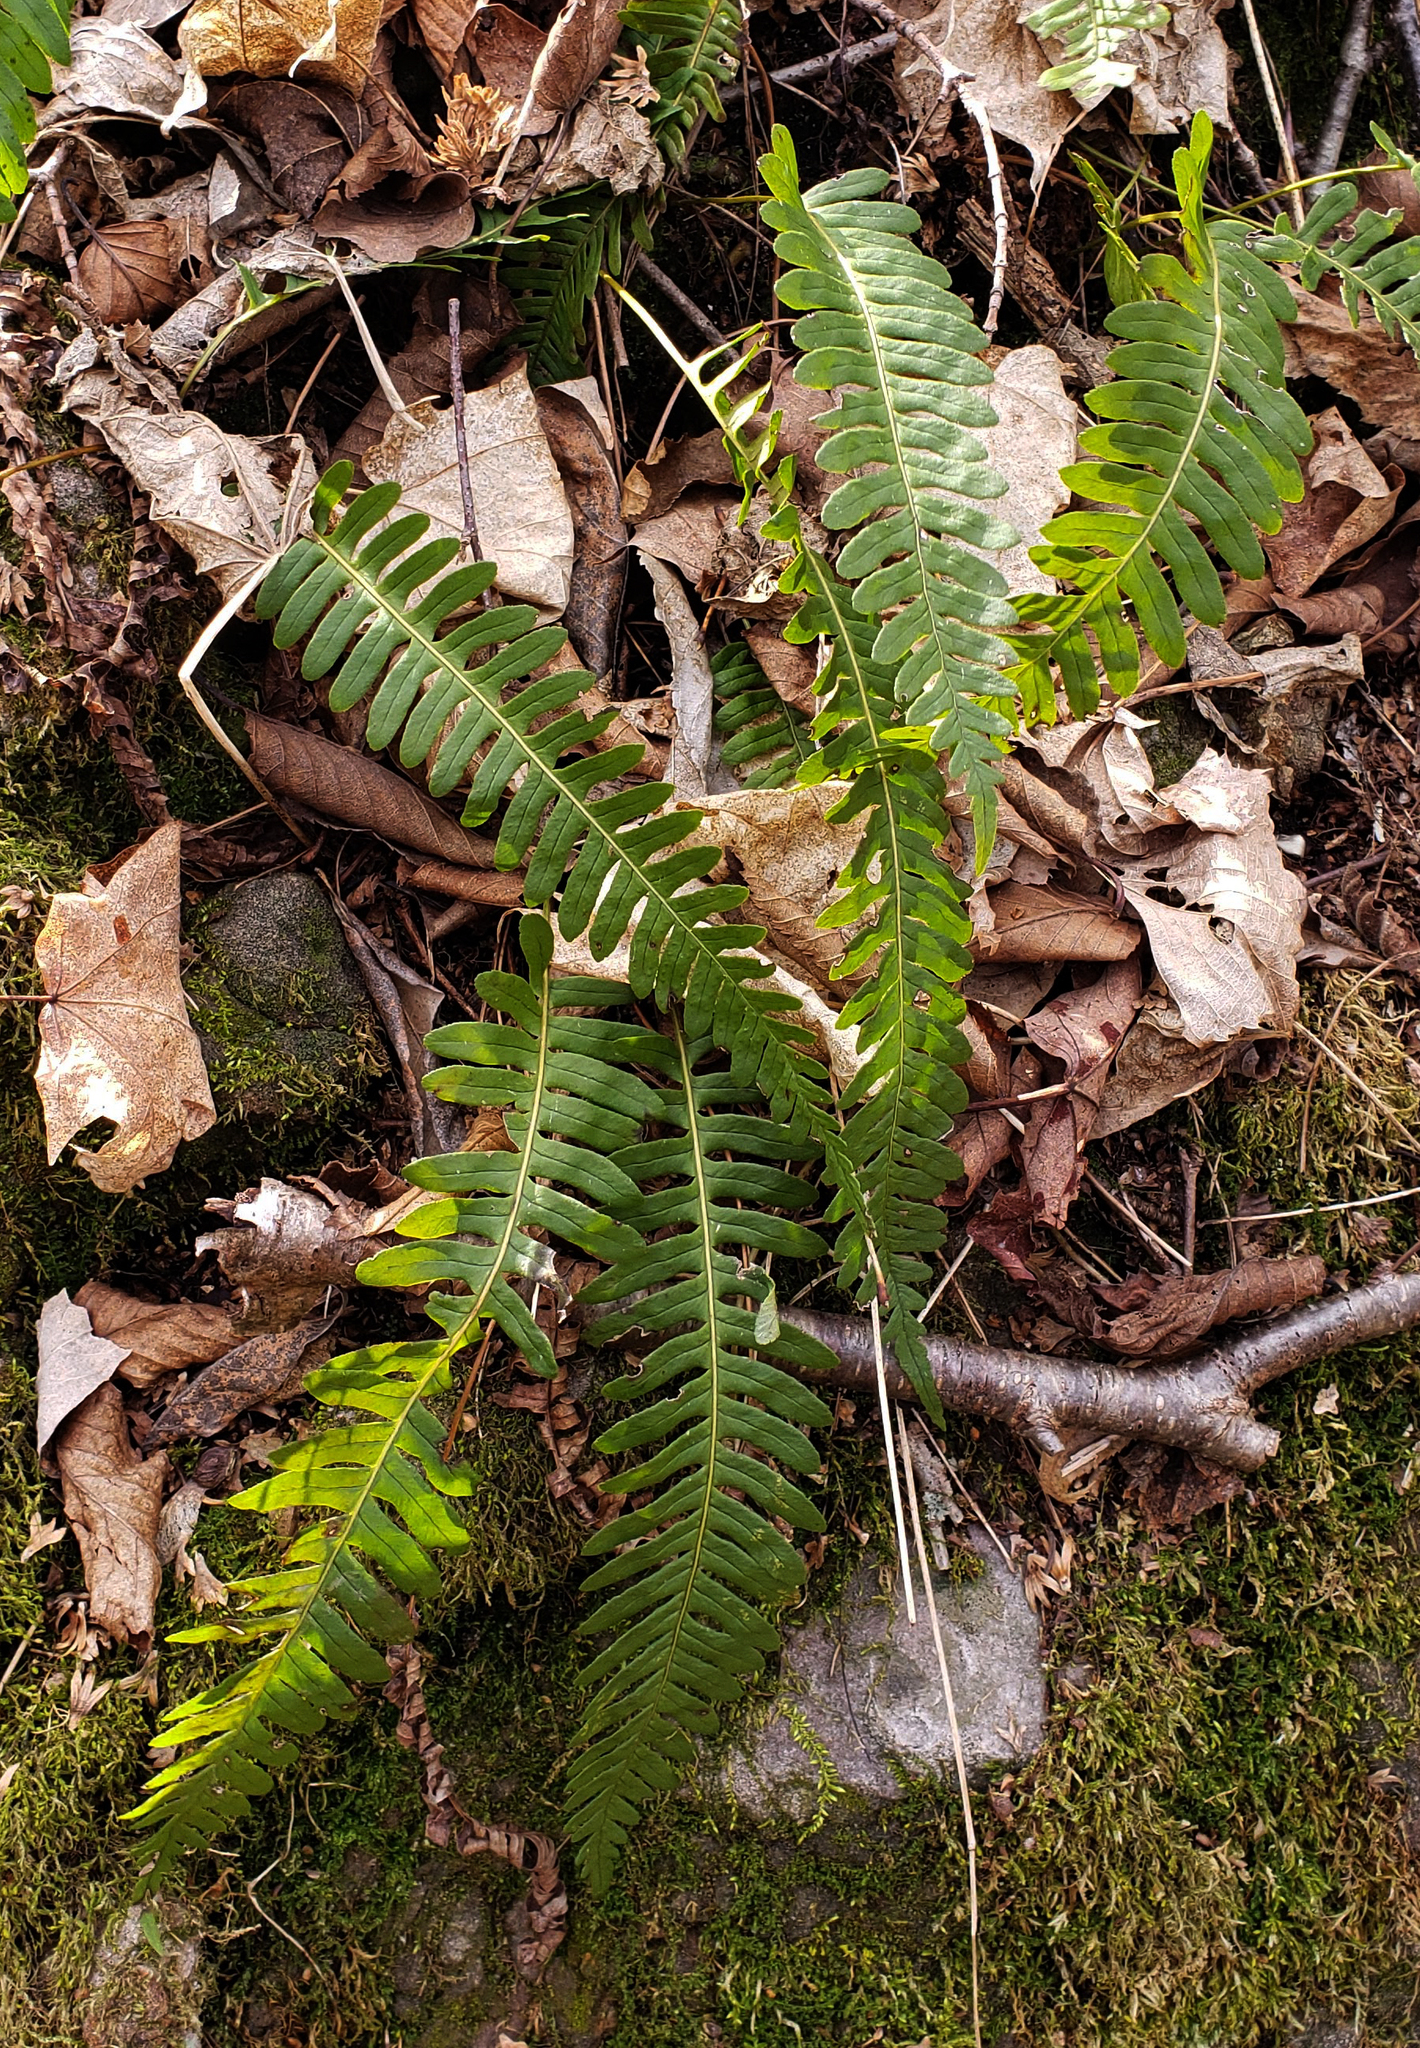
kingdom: Plantae
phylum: Tracheophyta
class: Polypodiopsida
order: Polypodiales
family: Polypodiaceae
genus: Polypodium
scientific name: Polypodium virginianum
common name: American wall fern
